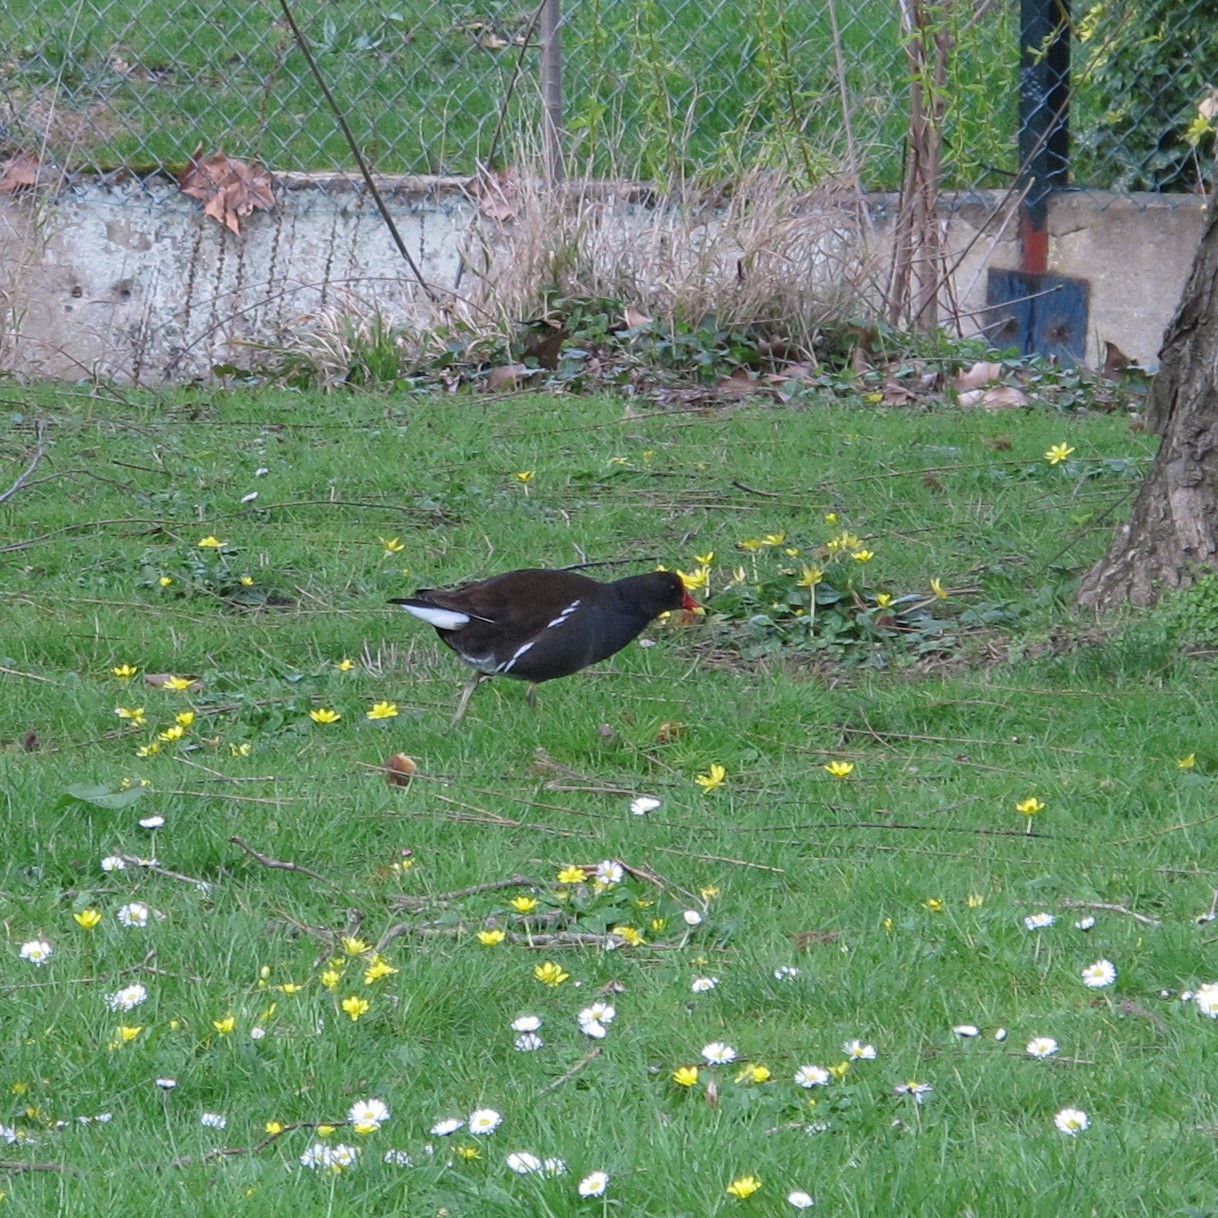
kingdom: Animalia
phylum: Chordata
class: Aves
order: Gruiformes
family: Rallidae
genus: Gallinula
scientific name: Gallinula chloropus
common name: Common moorhen
